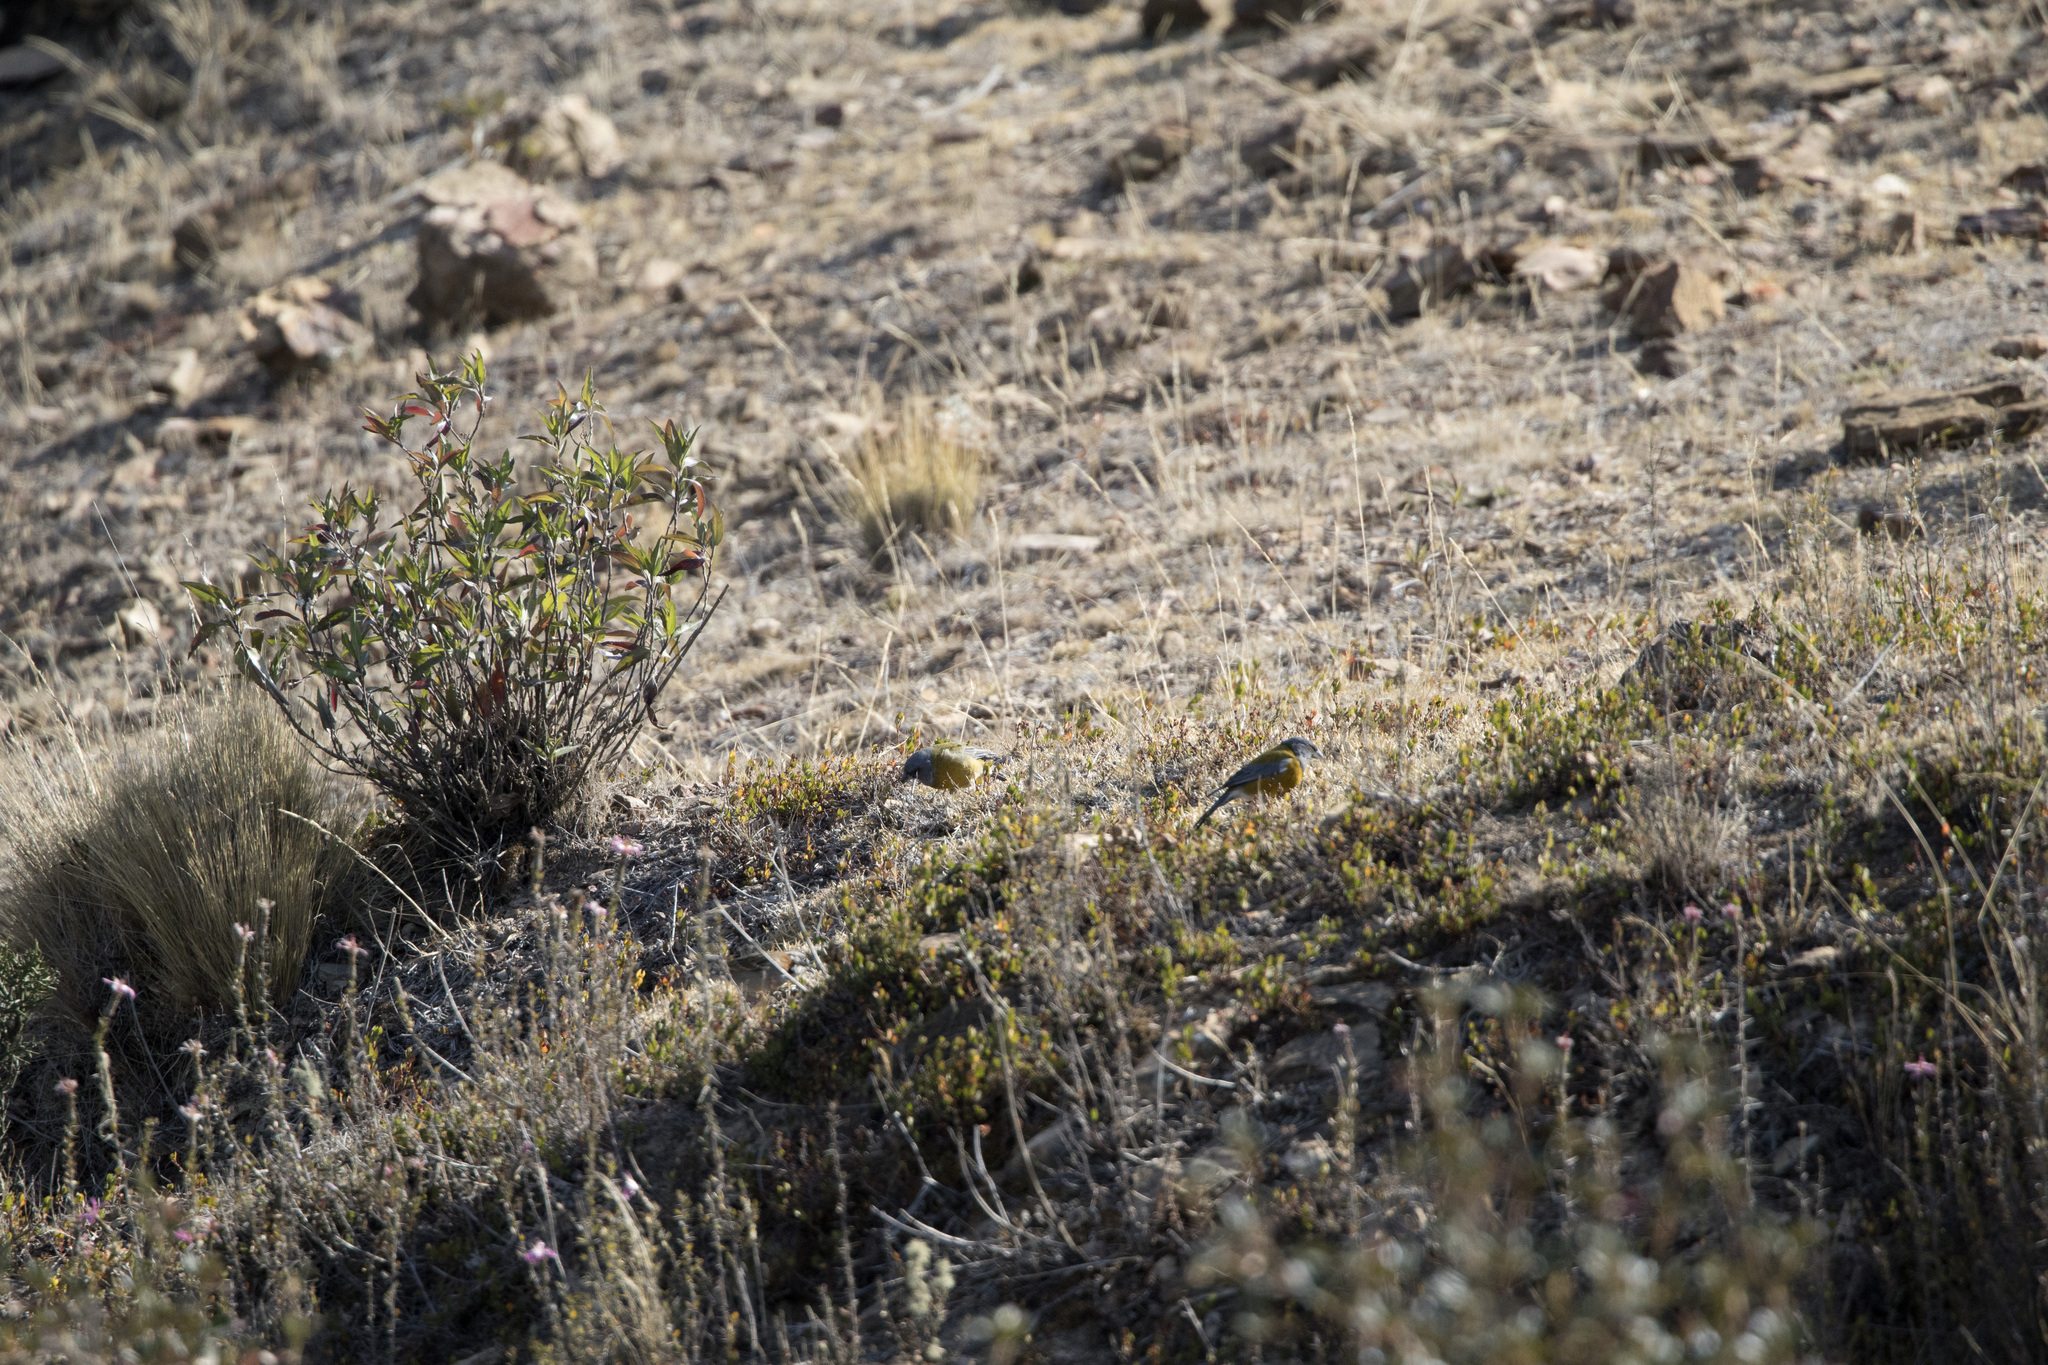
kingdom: Animalia
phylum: Chordata
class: Aves
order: Passeriformes
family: Thraupidae
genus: Phrygilus
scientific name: Phrygilus punensis
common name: Peruvian sierra finch
